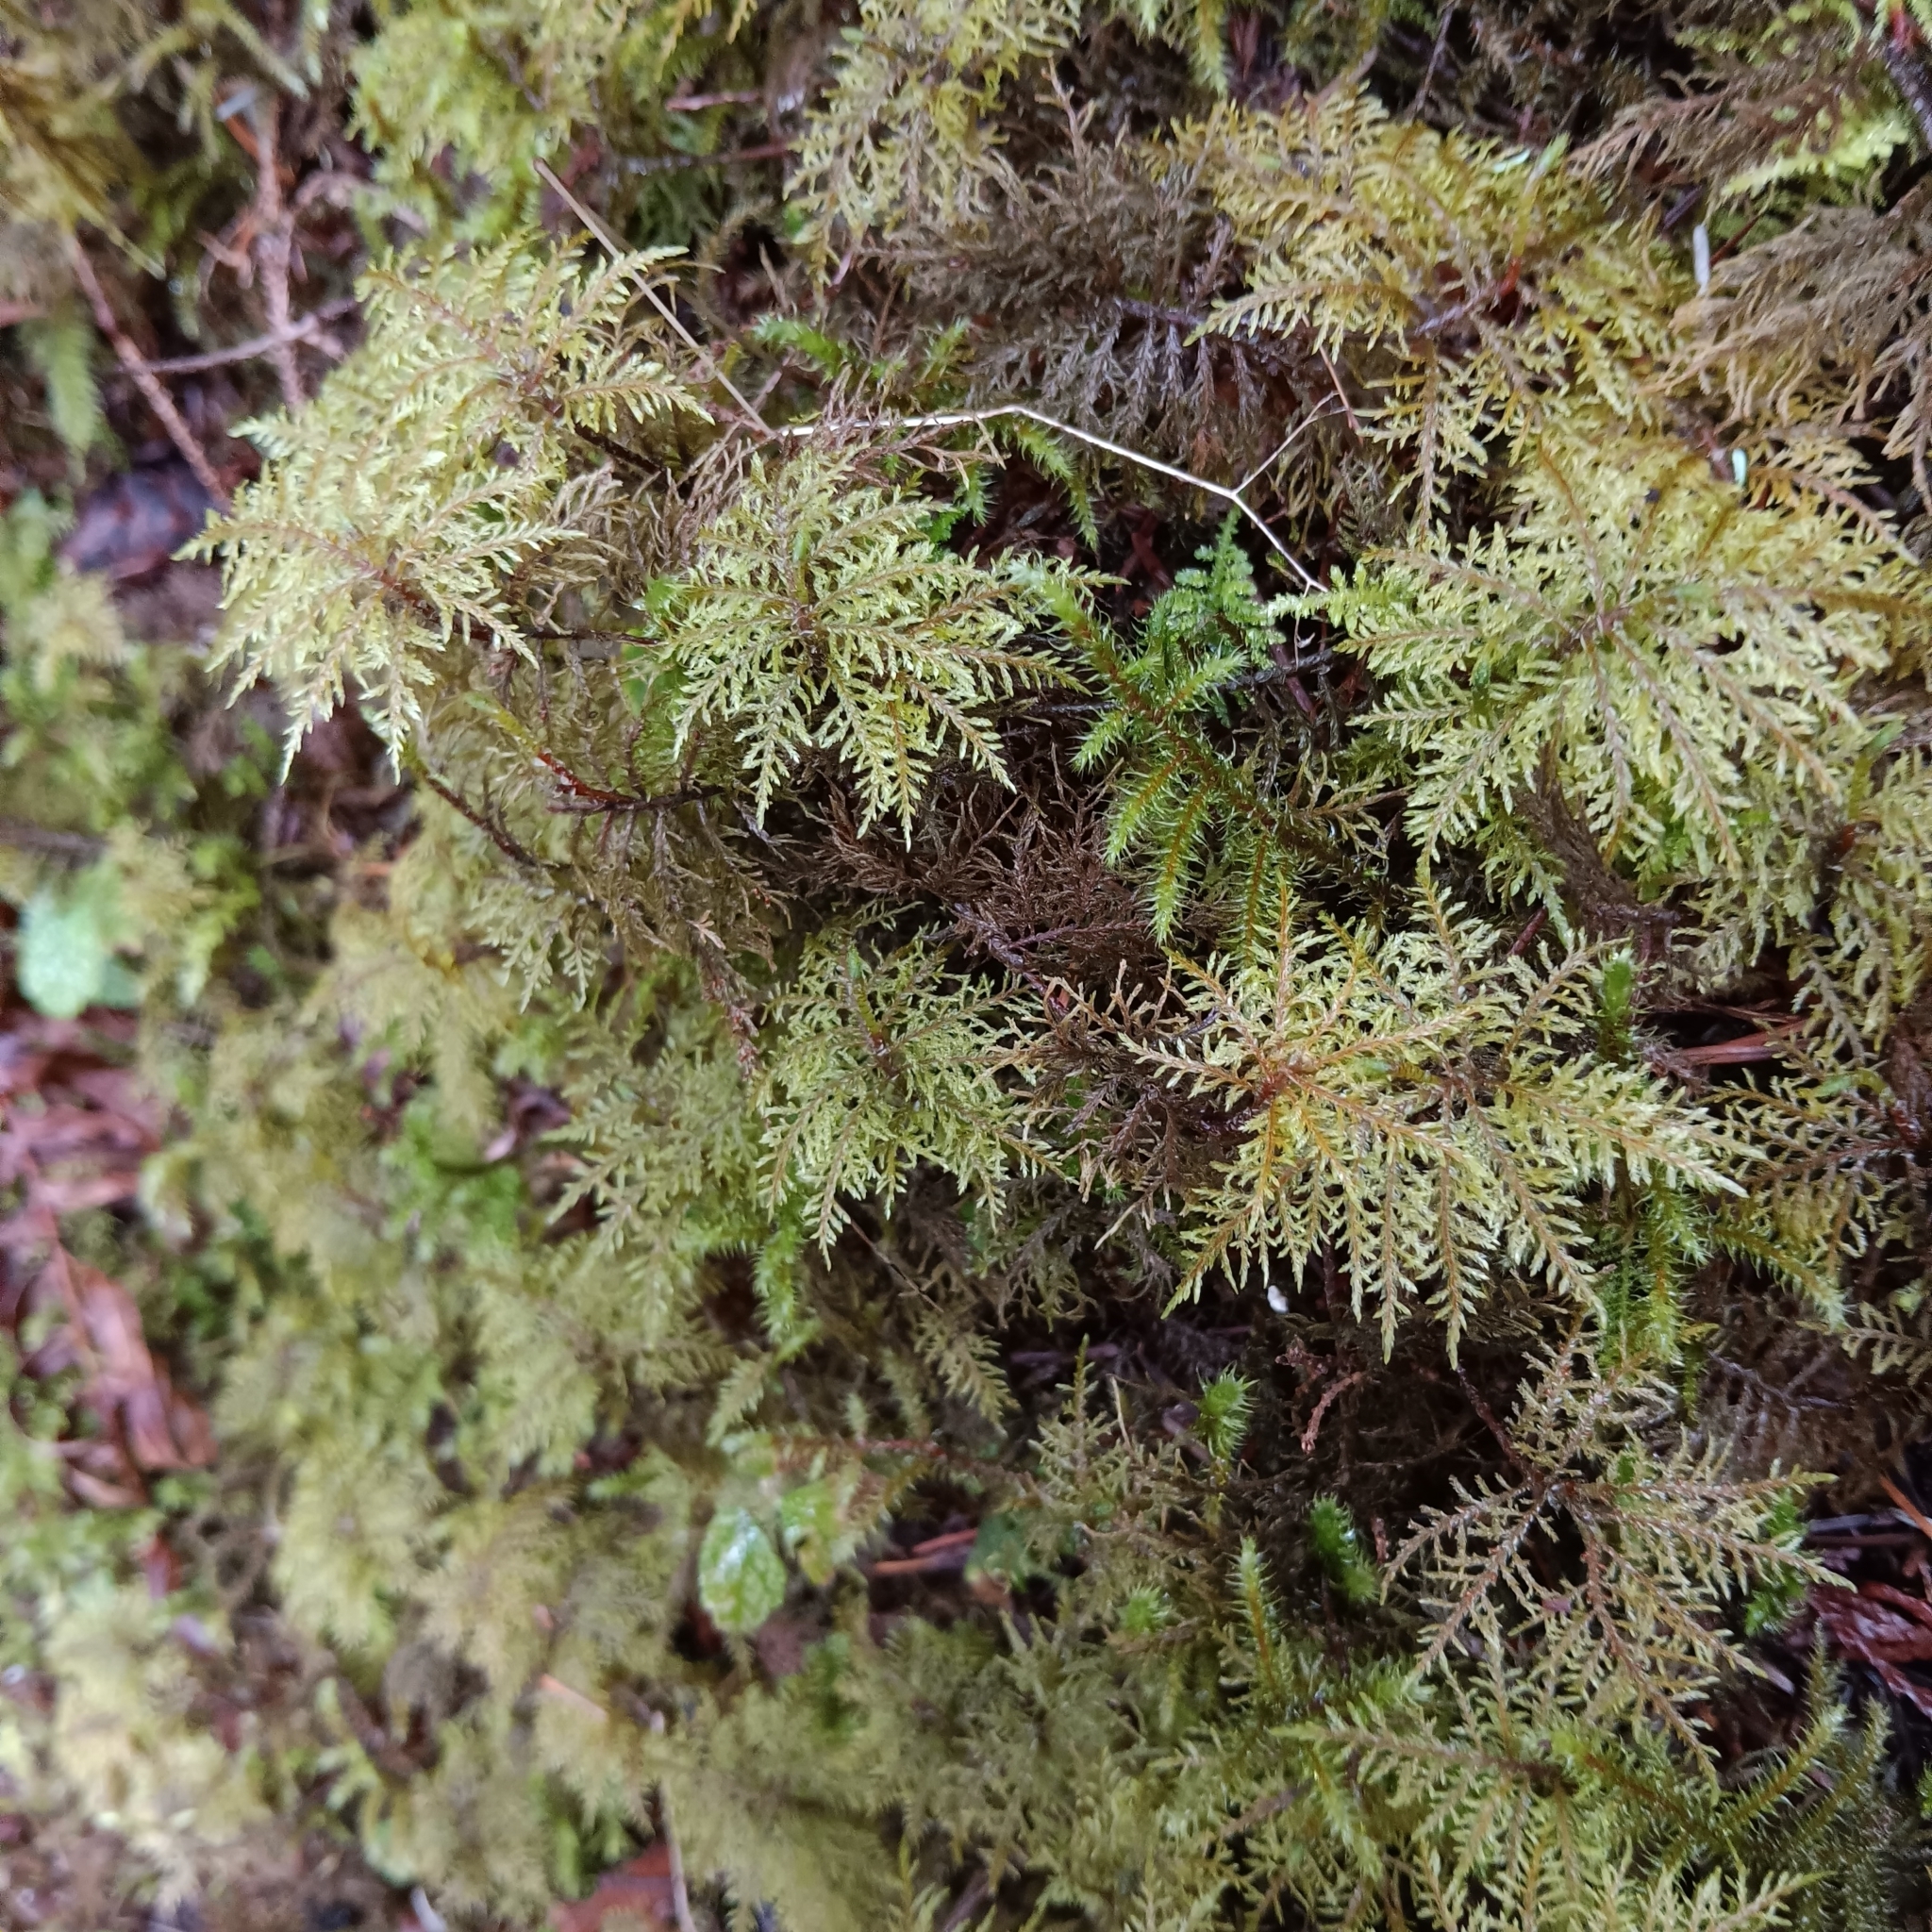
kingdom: Plantae
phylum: Bryophyta
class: Bryopsida
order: Hypnales
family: Hylocomiaceae
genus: Hylocomium
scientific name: Hylocomium splendens
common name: Stairstep moss
